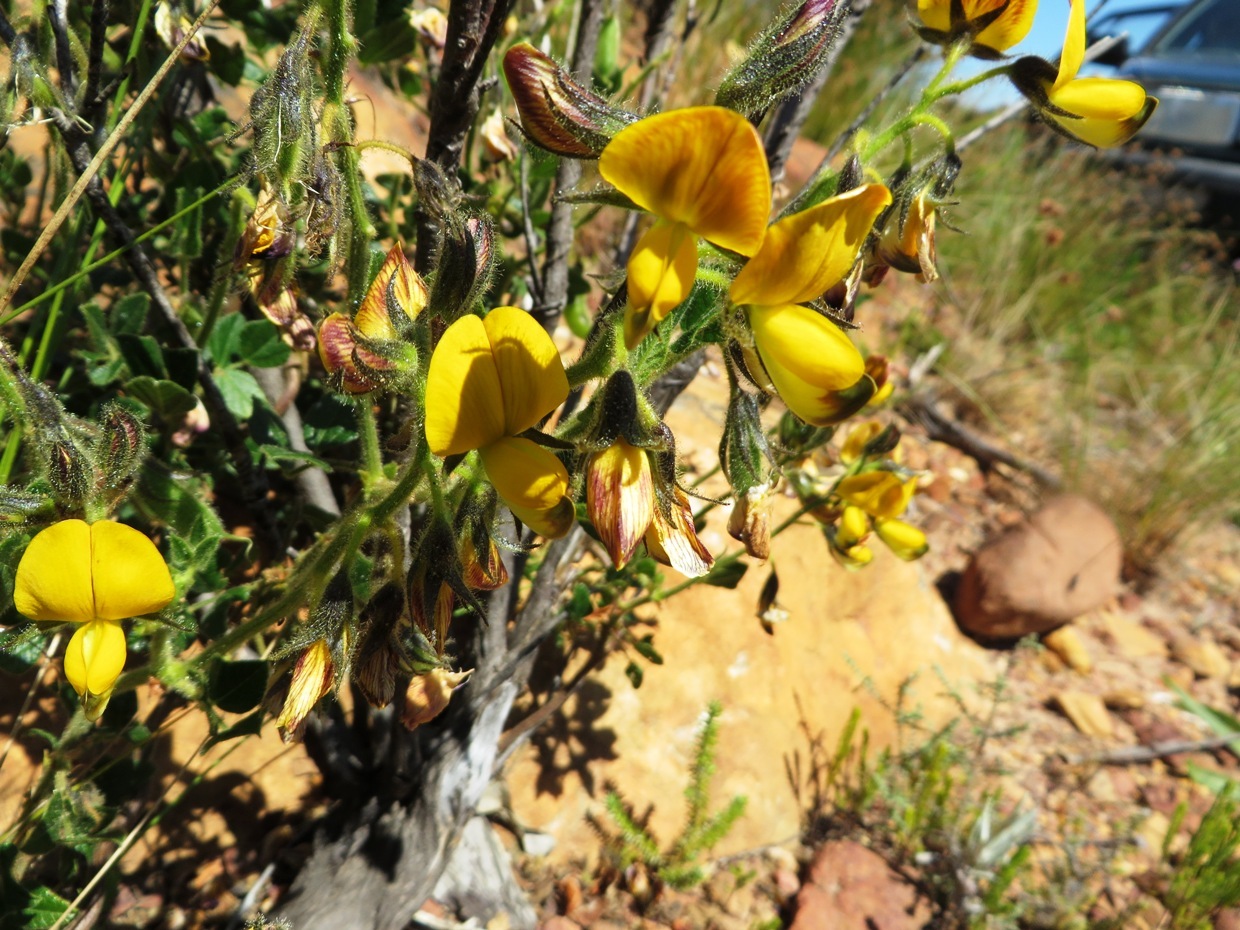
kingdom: Plantae
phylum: Tracheophyta
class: Magnoliopsida
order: Fabales
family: Fabaceae
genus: Bolusafra
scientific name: Bolusafra bituminosa
